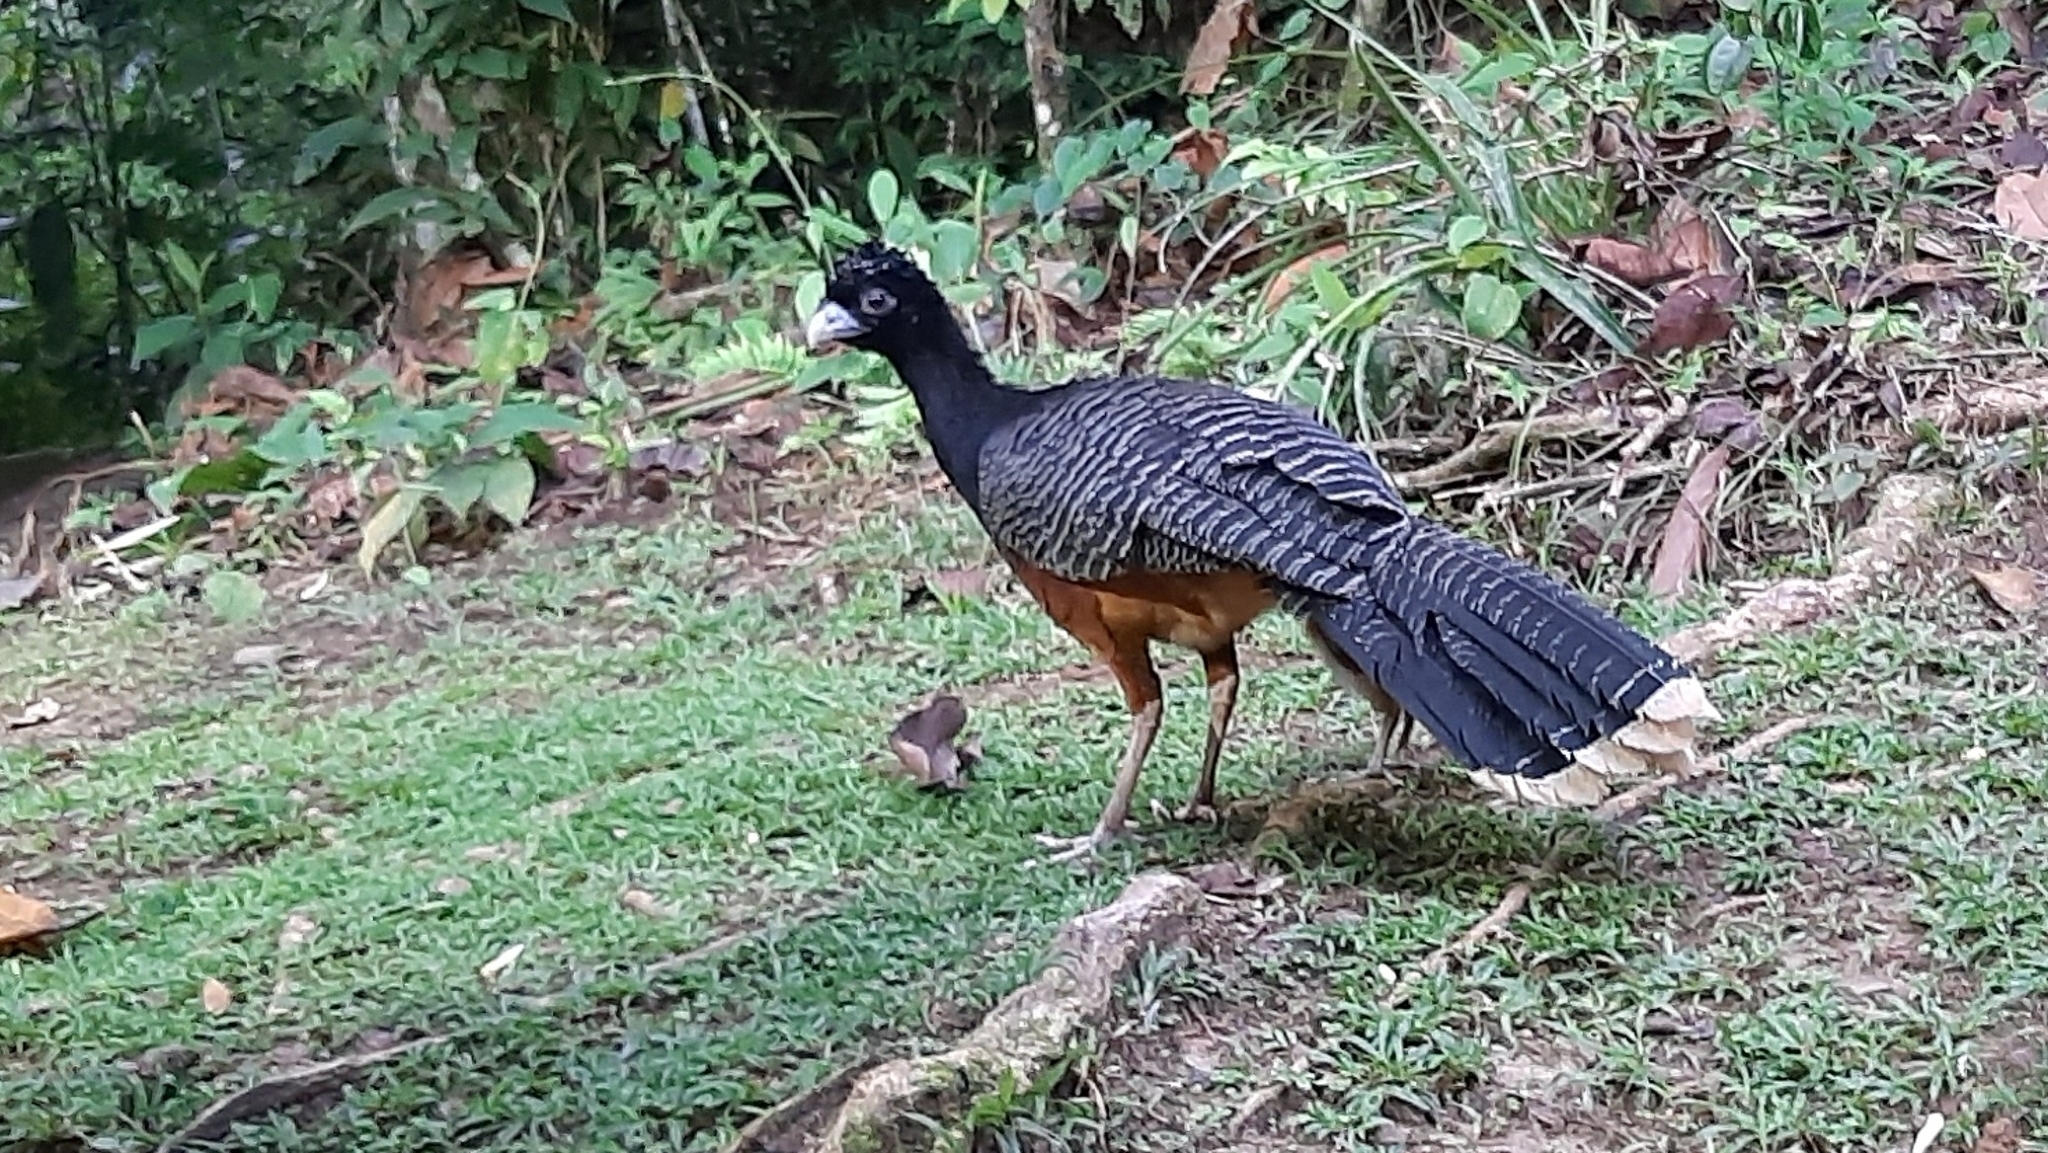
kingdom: Animalia
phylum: Chordata
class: Aves
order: Galliformes
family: Cracidae
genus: Crax
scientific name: Crax alberti
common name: Blue-billed curassow
